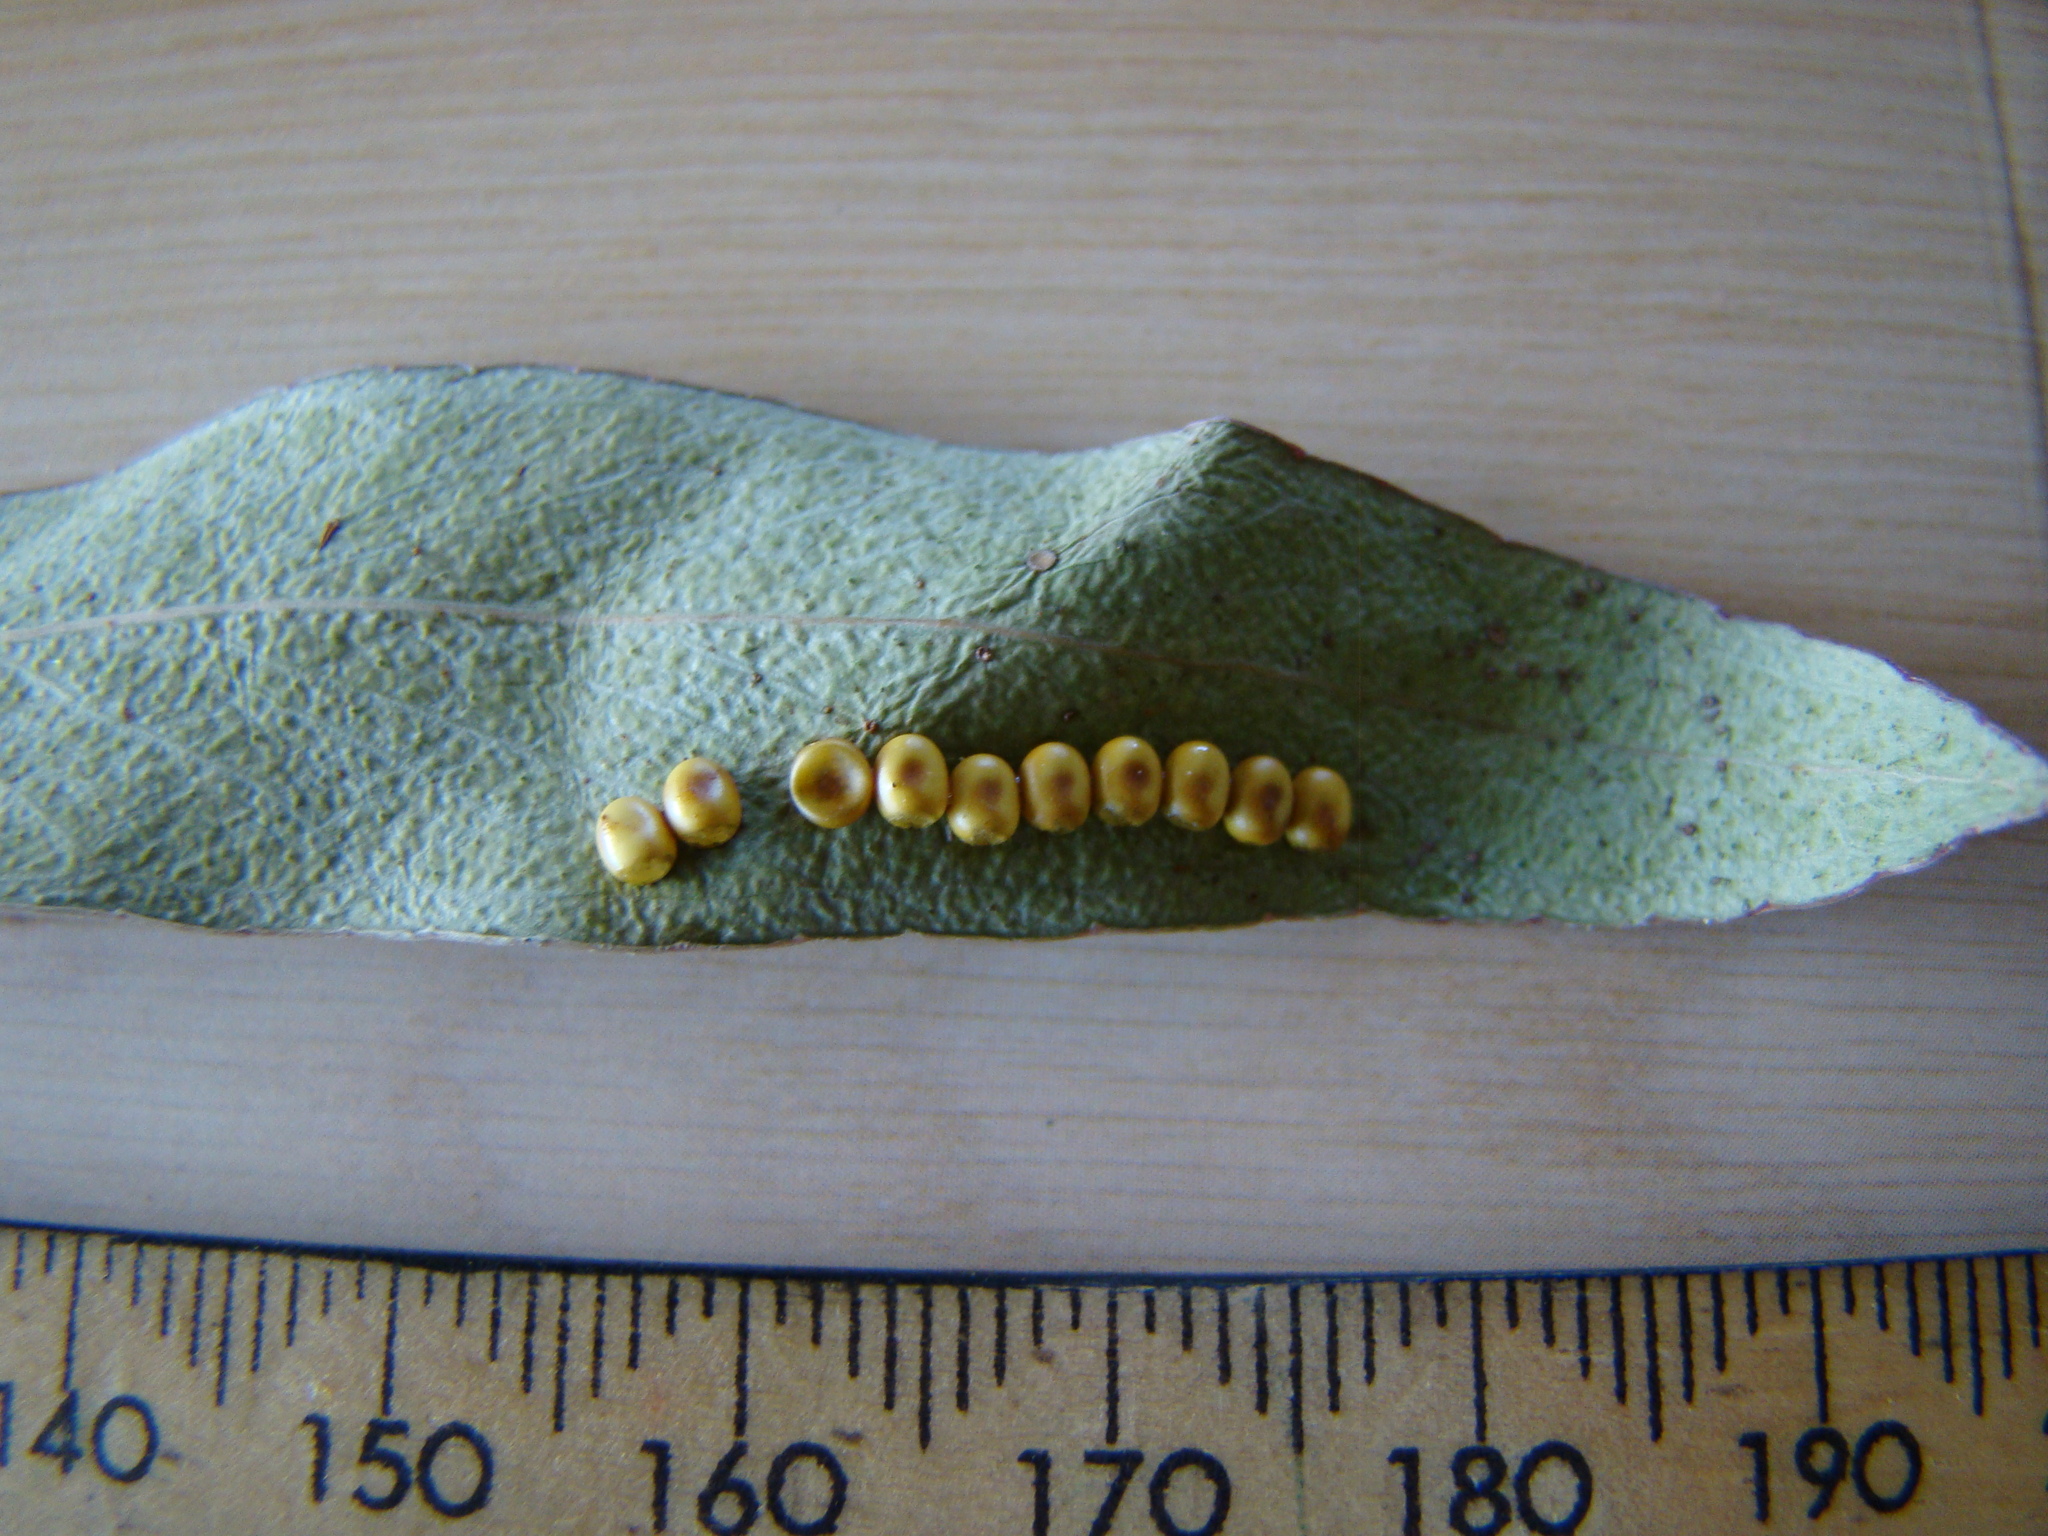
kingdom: Animalia
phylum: Arthropoda
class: Insecta
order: Lepidoptera
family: Saturniidae
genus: Opodiphthera
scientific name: Opodiphthera
